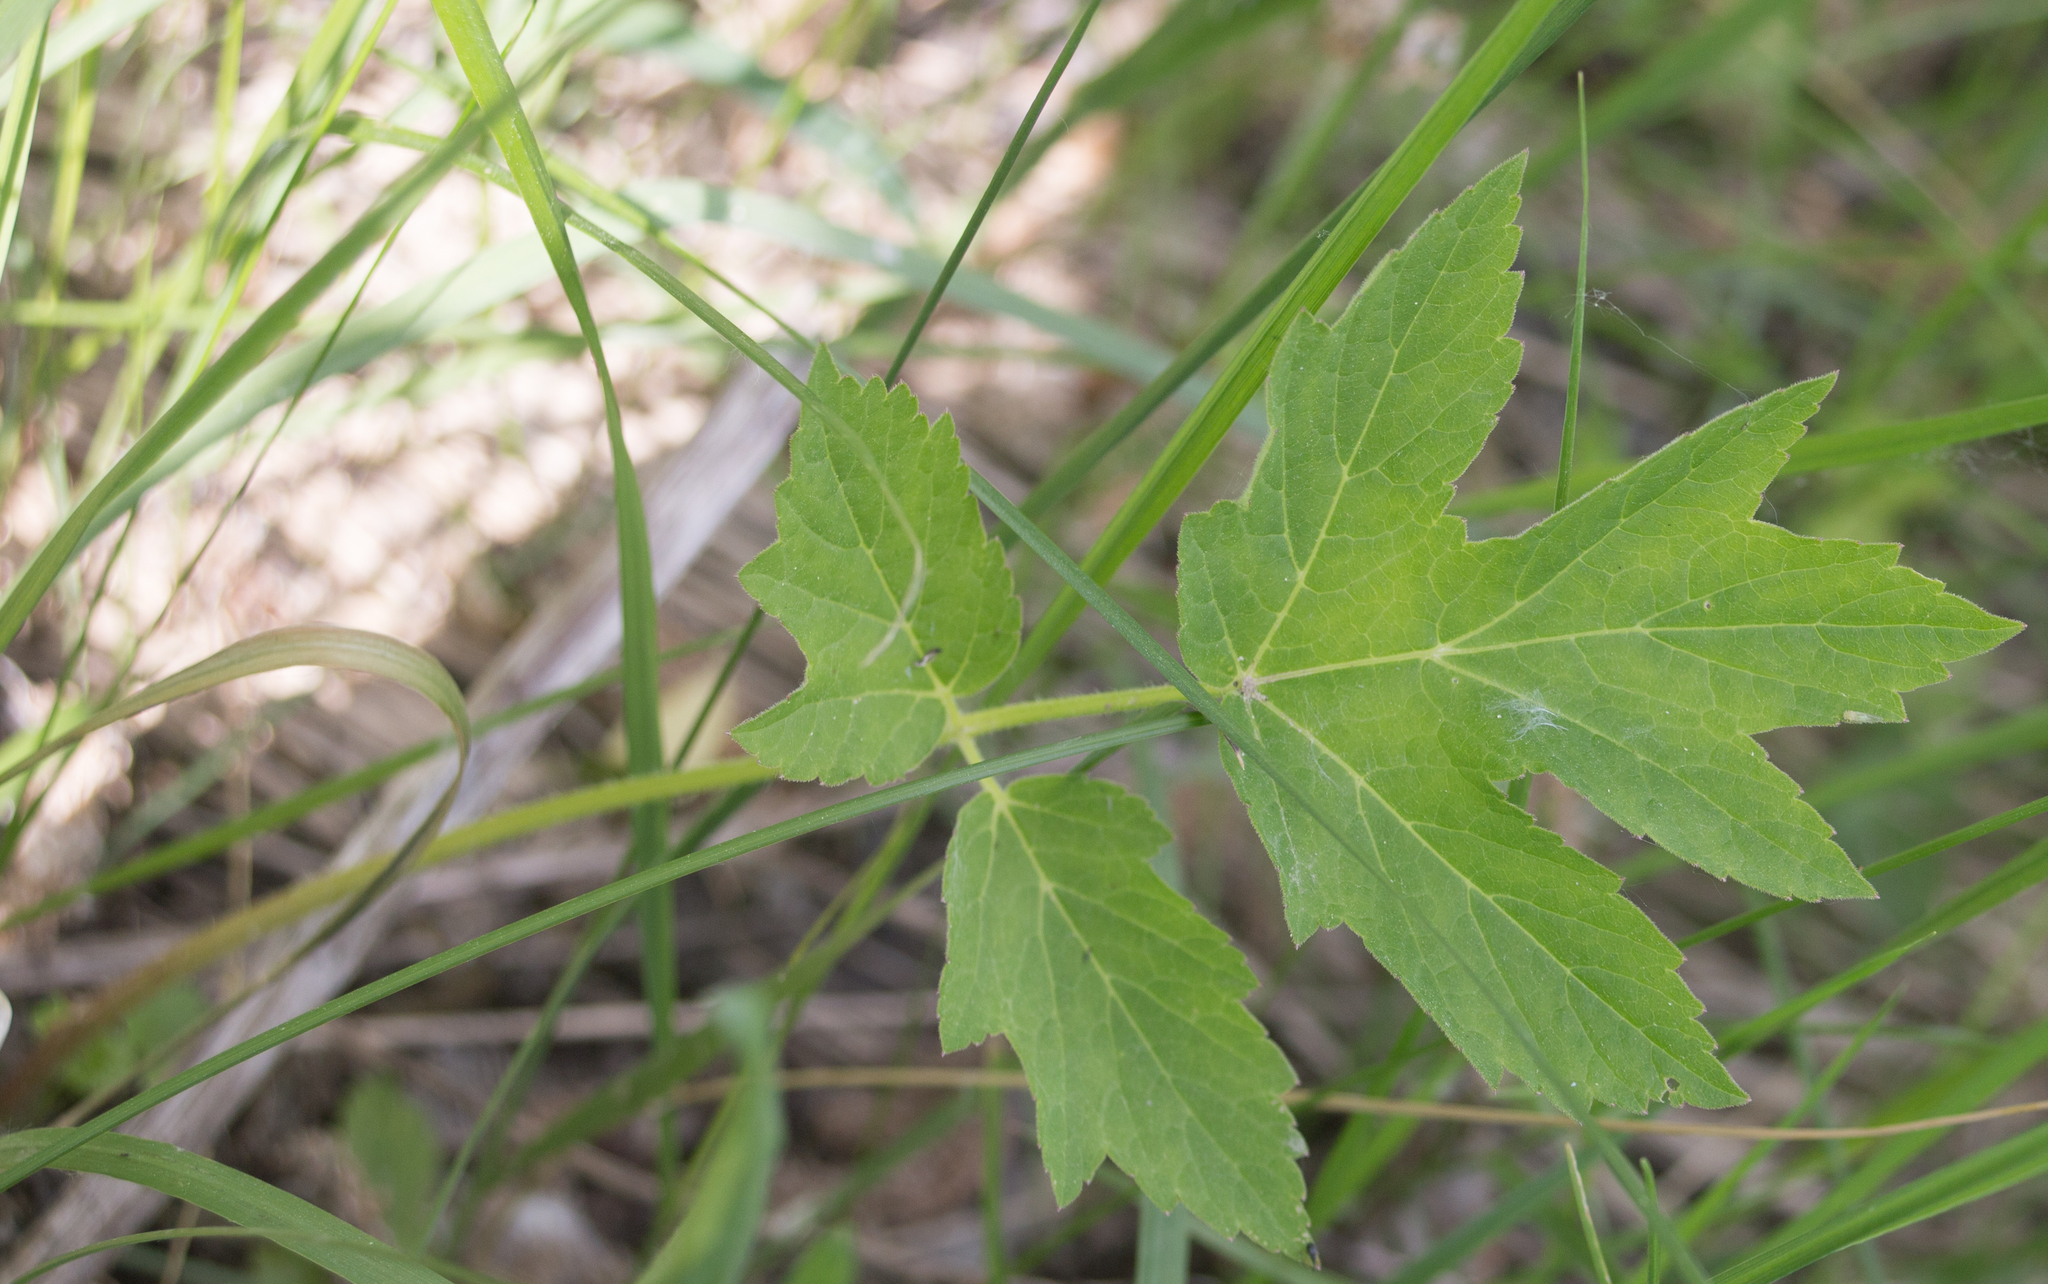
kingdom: Plantae
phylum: Tracheophyta
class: Magnoliopsida
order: Apiales
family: Apiaceae
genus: Heracleum
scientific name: Heracleum sphondylium
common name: Hogweed
